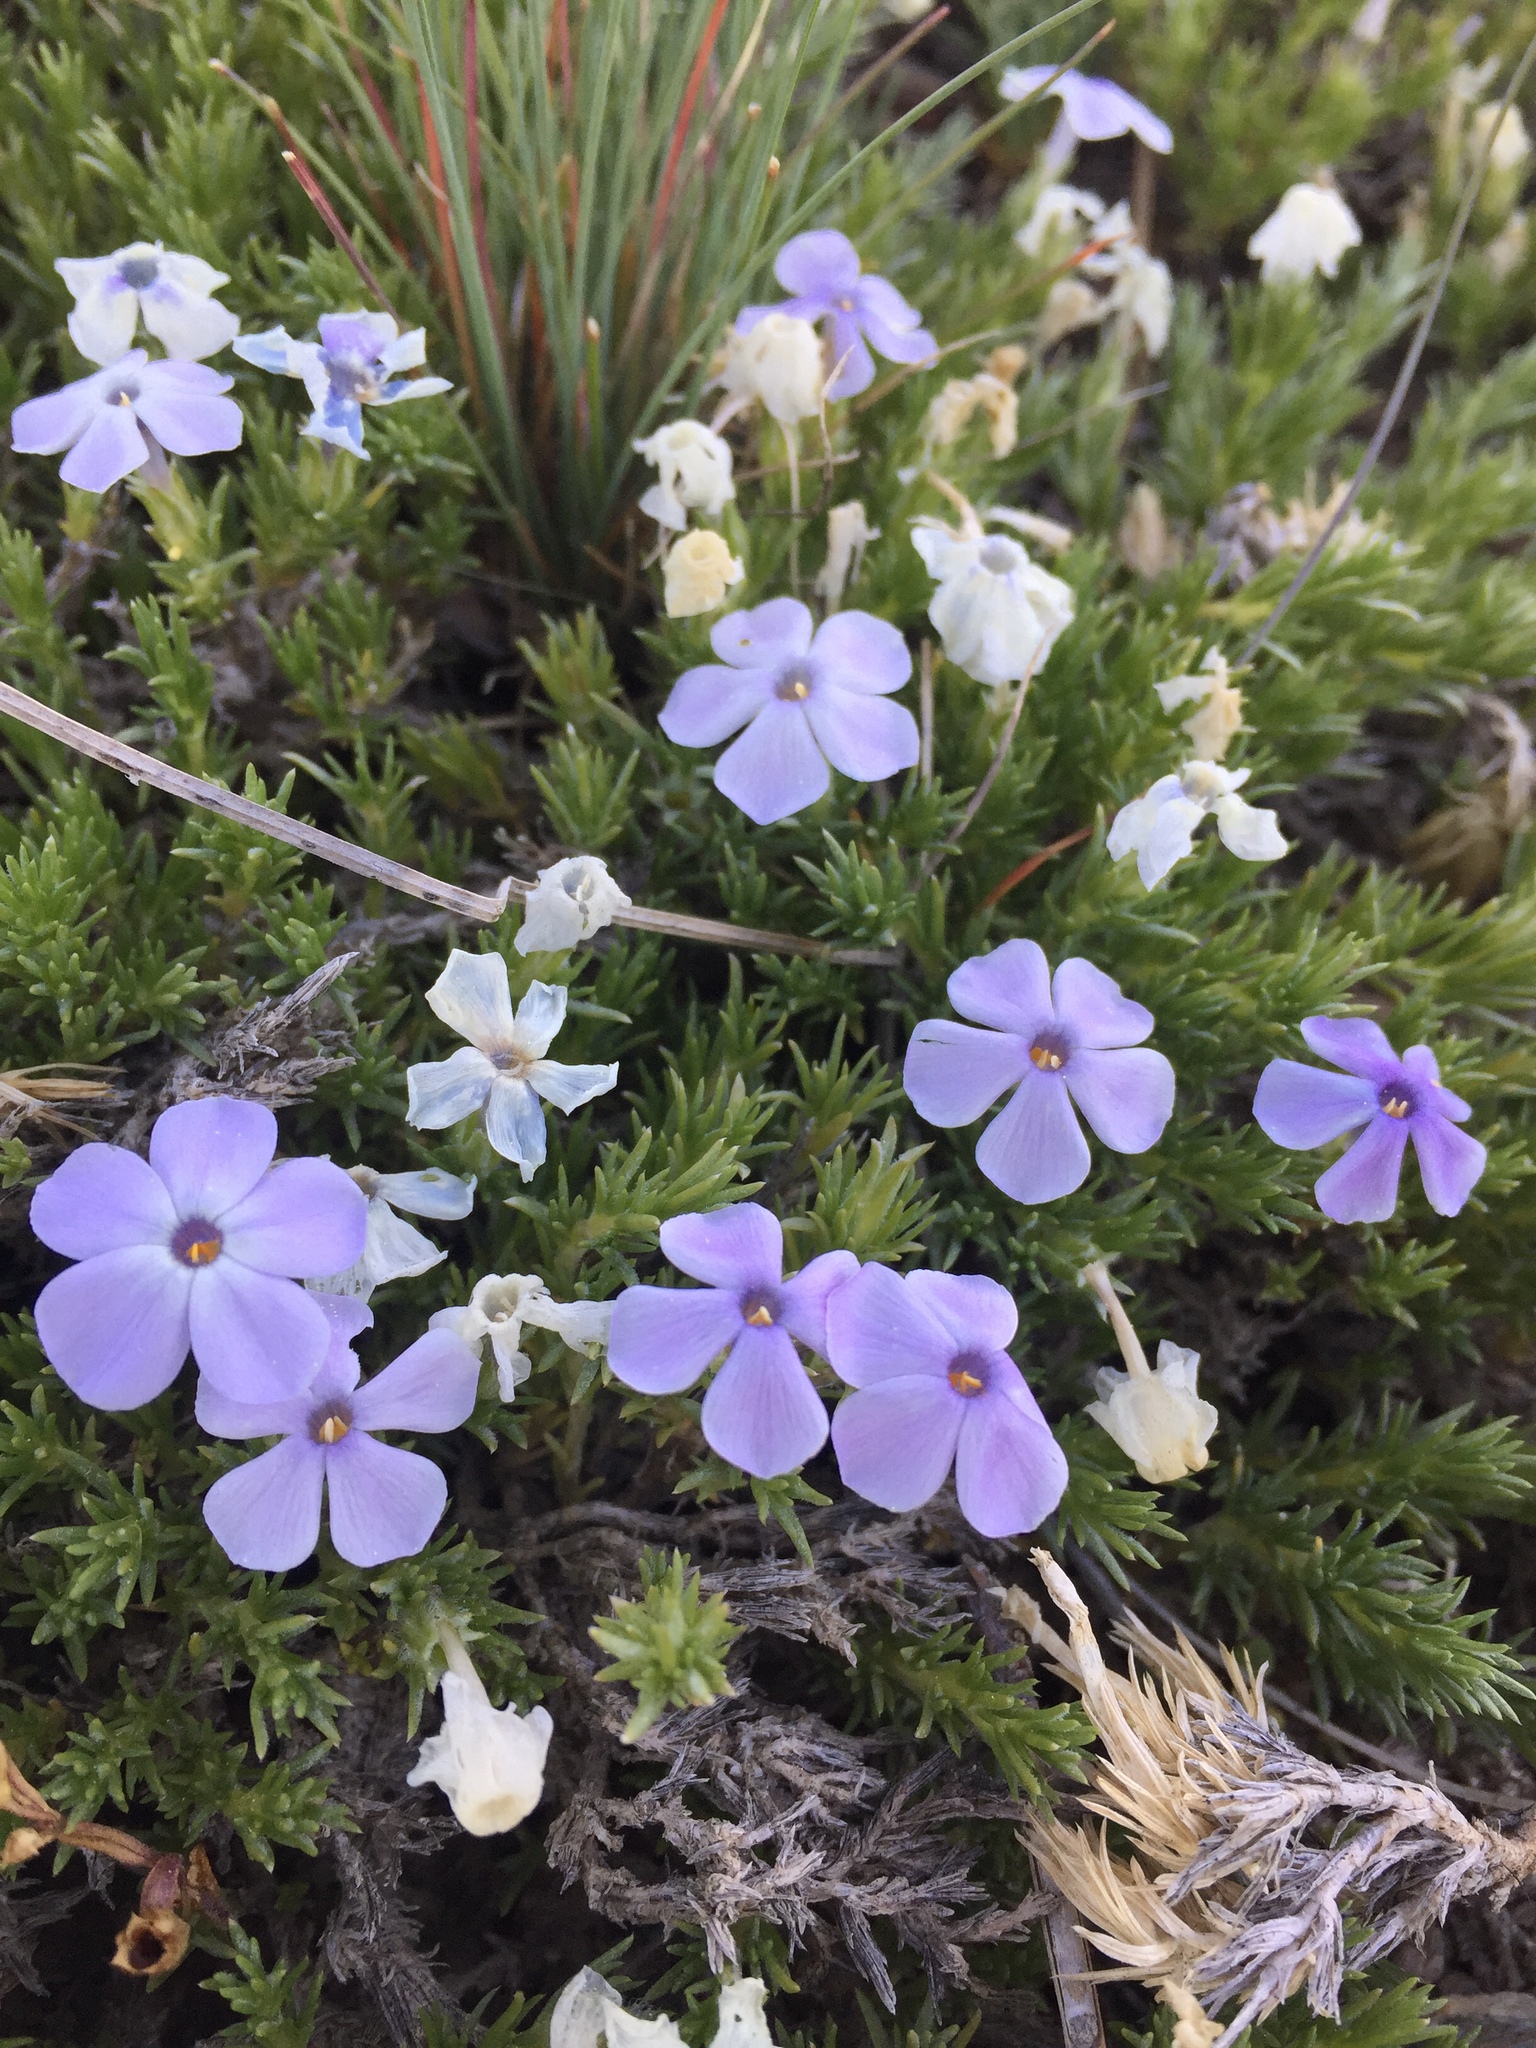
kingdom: Plantae
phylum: Tracheophyta
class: Magnoliopsida
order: Ericales
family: Polemoniaceae
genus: Phlox
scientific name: Phlox diffusa
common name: Mat phlox
